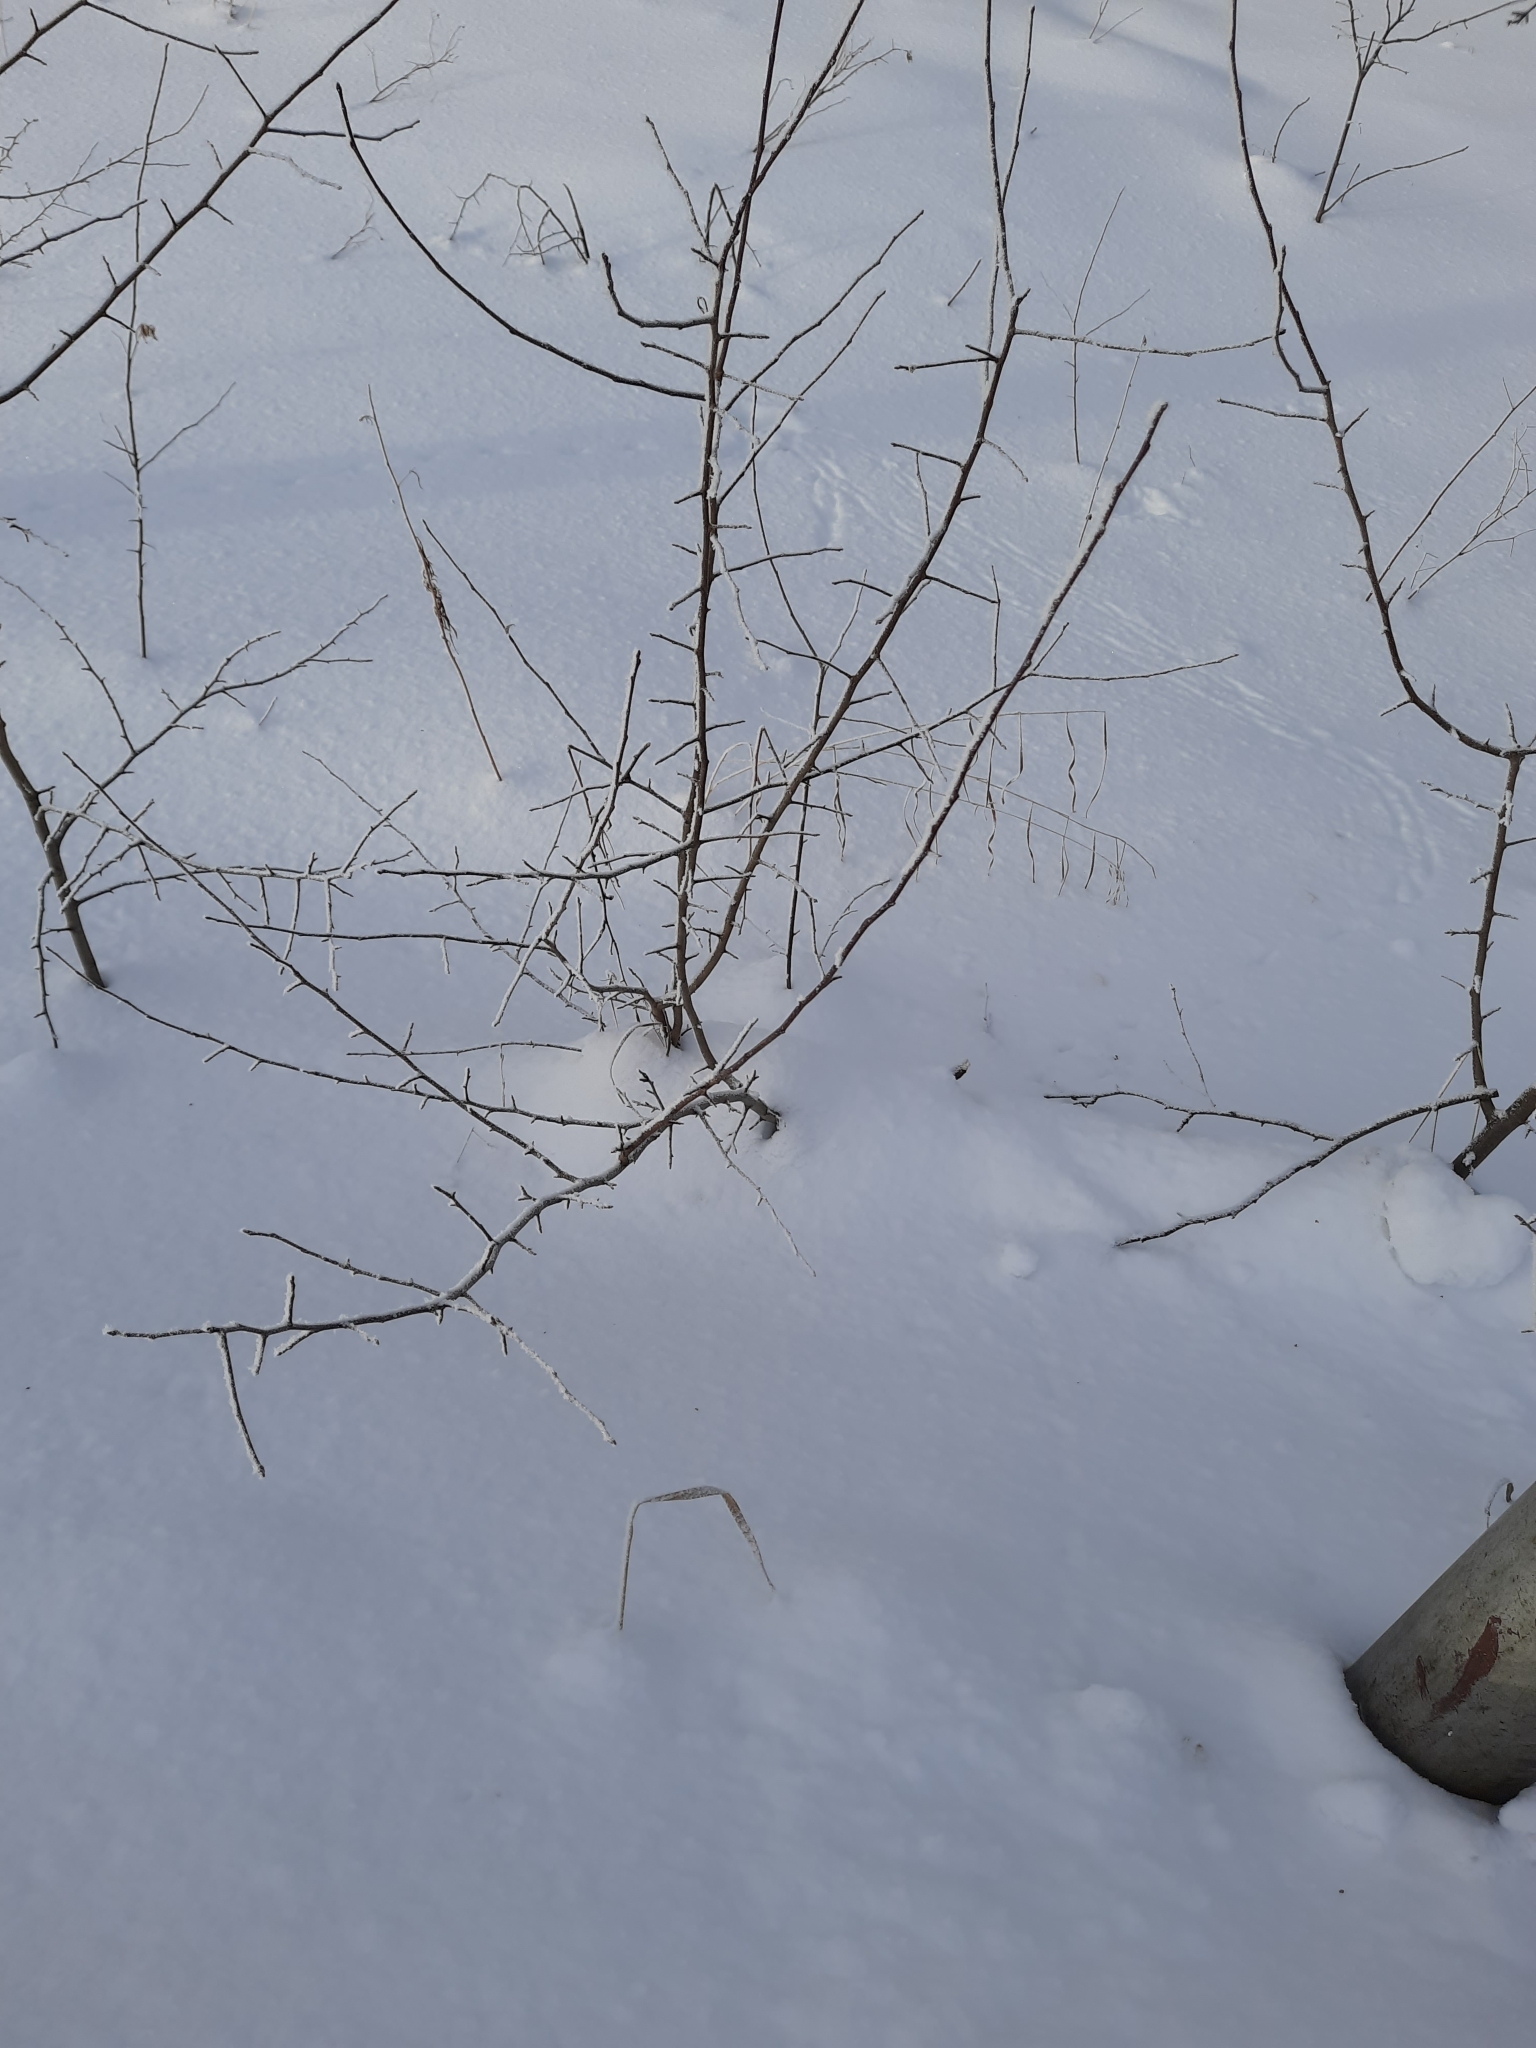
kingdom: Plantae
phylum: Tracheophyta
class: Magnoliopsida
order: Rosales
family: Rosaceae
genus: Malus
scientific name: Malus baccata
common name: Siberian crab
